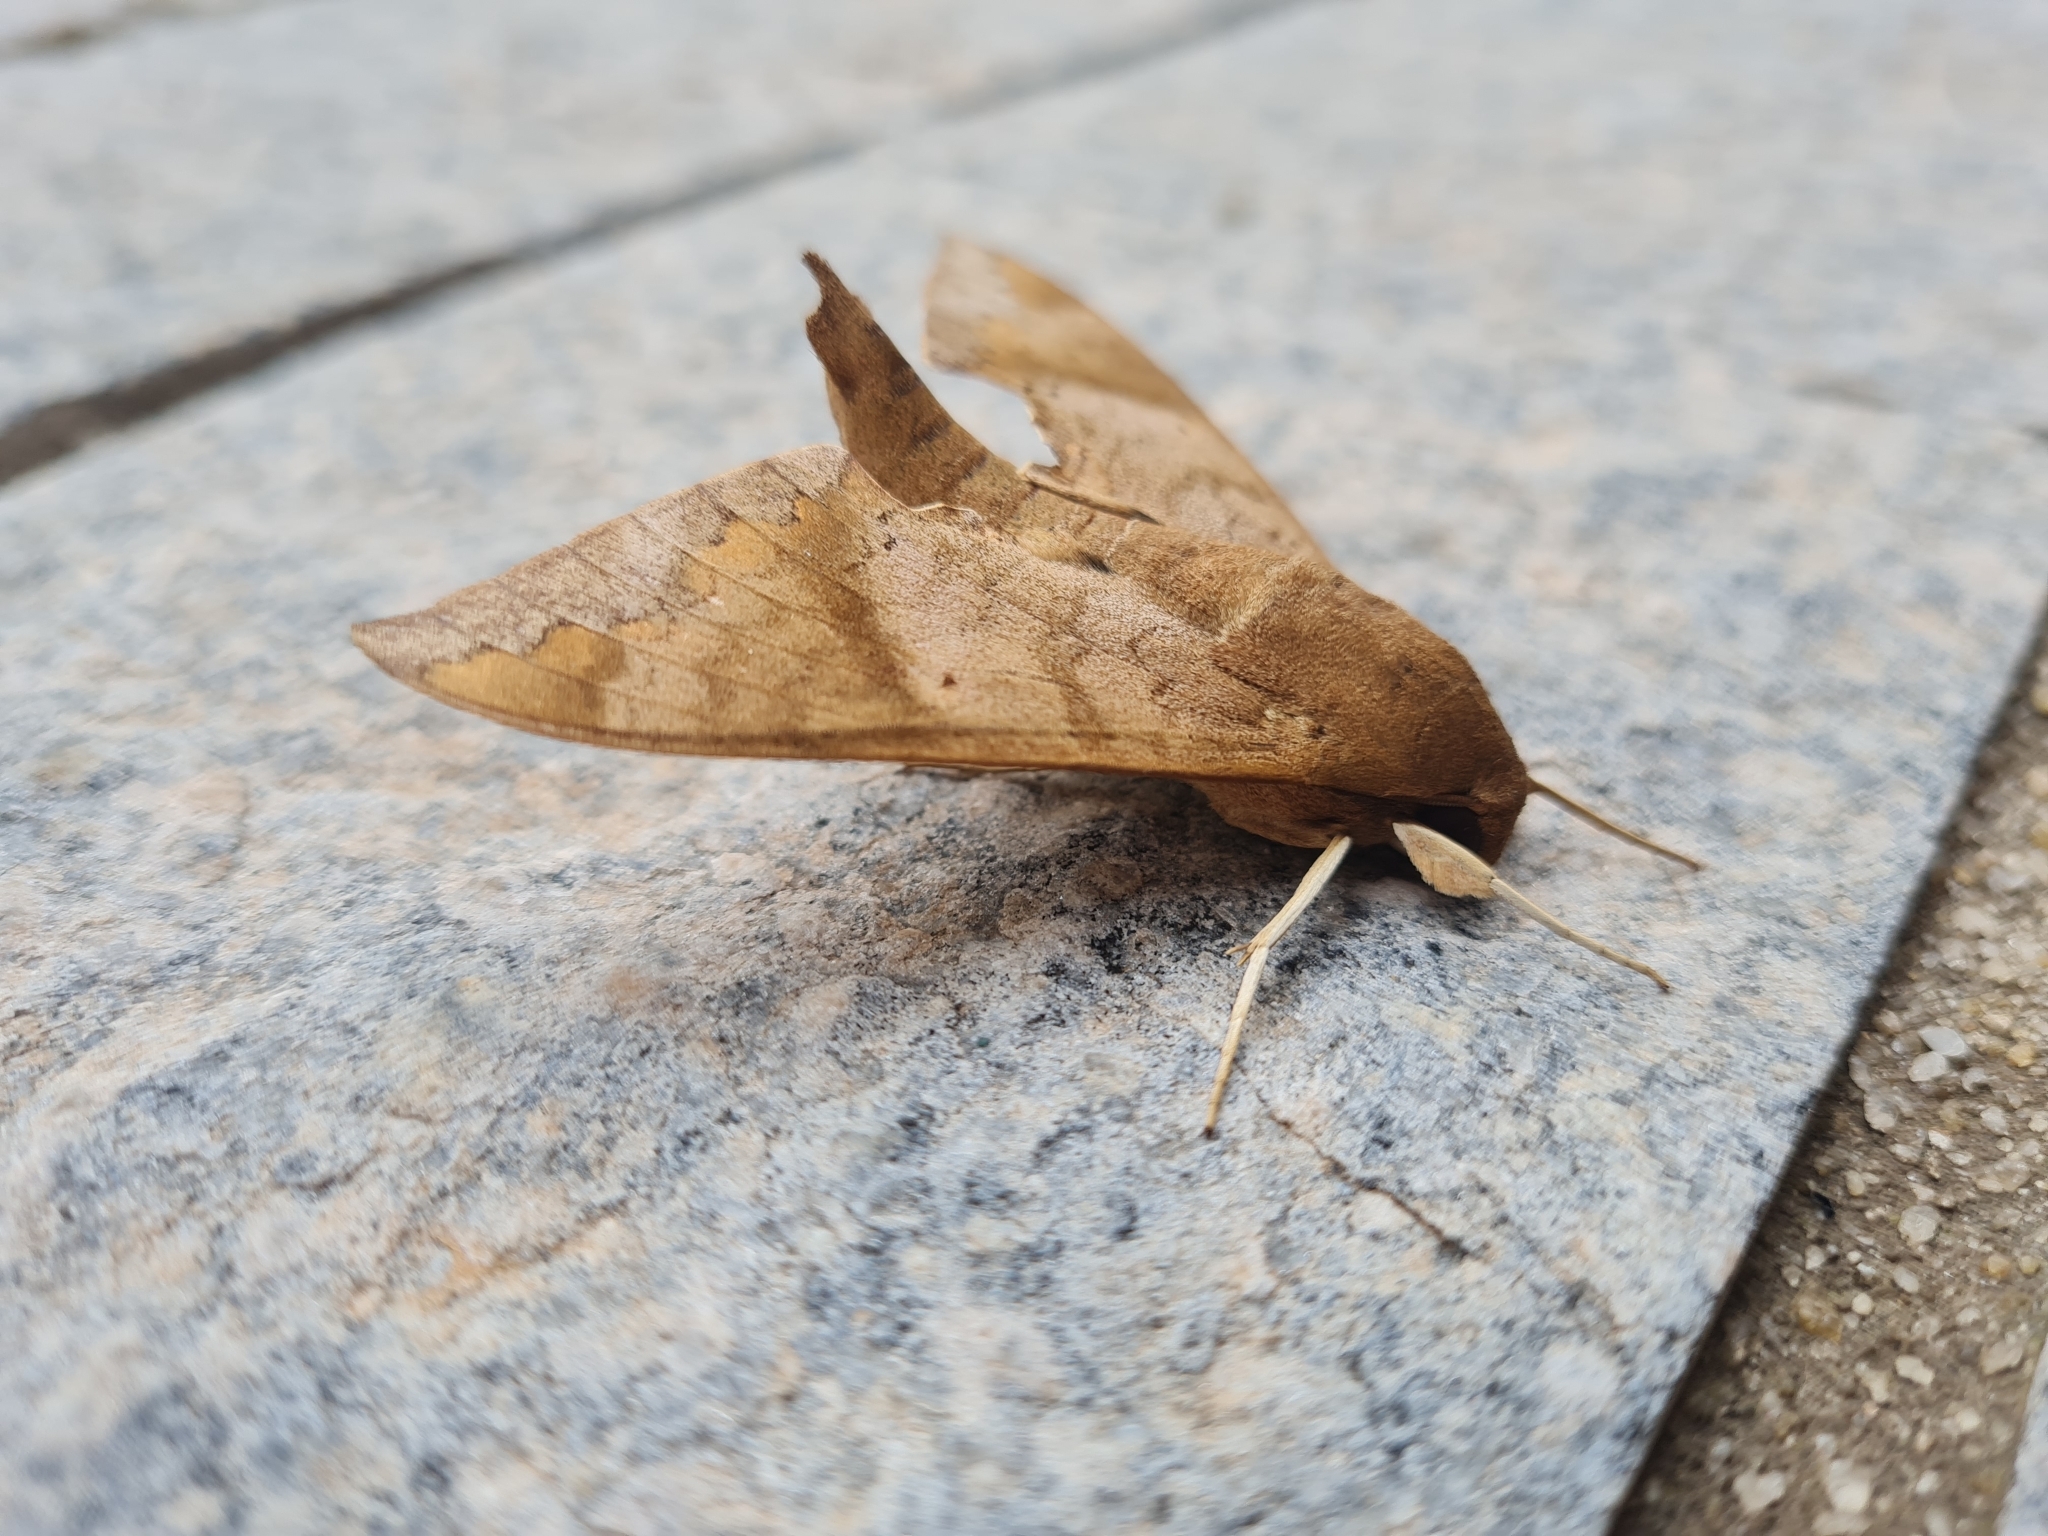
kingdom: Animalia
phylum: Arthropoda
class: Insecta
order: Lepidoptera
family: Sphingidae
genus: Pachylioides
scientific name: Pachylioides resumens
